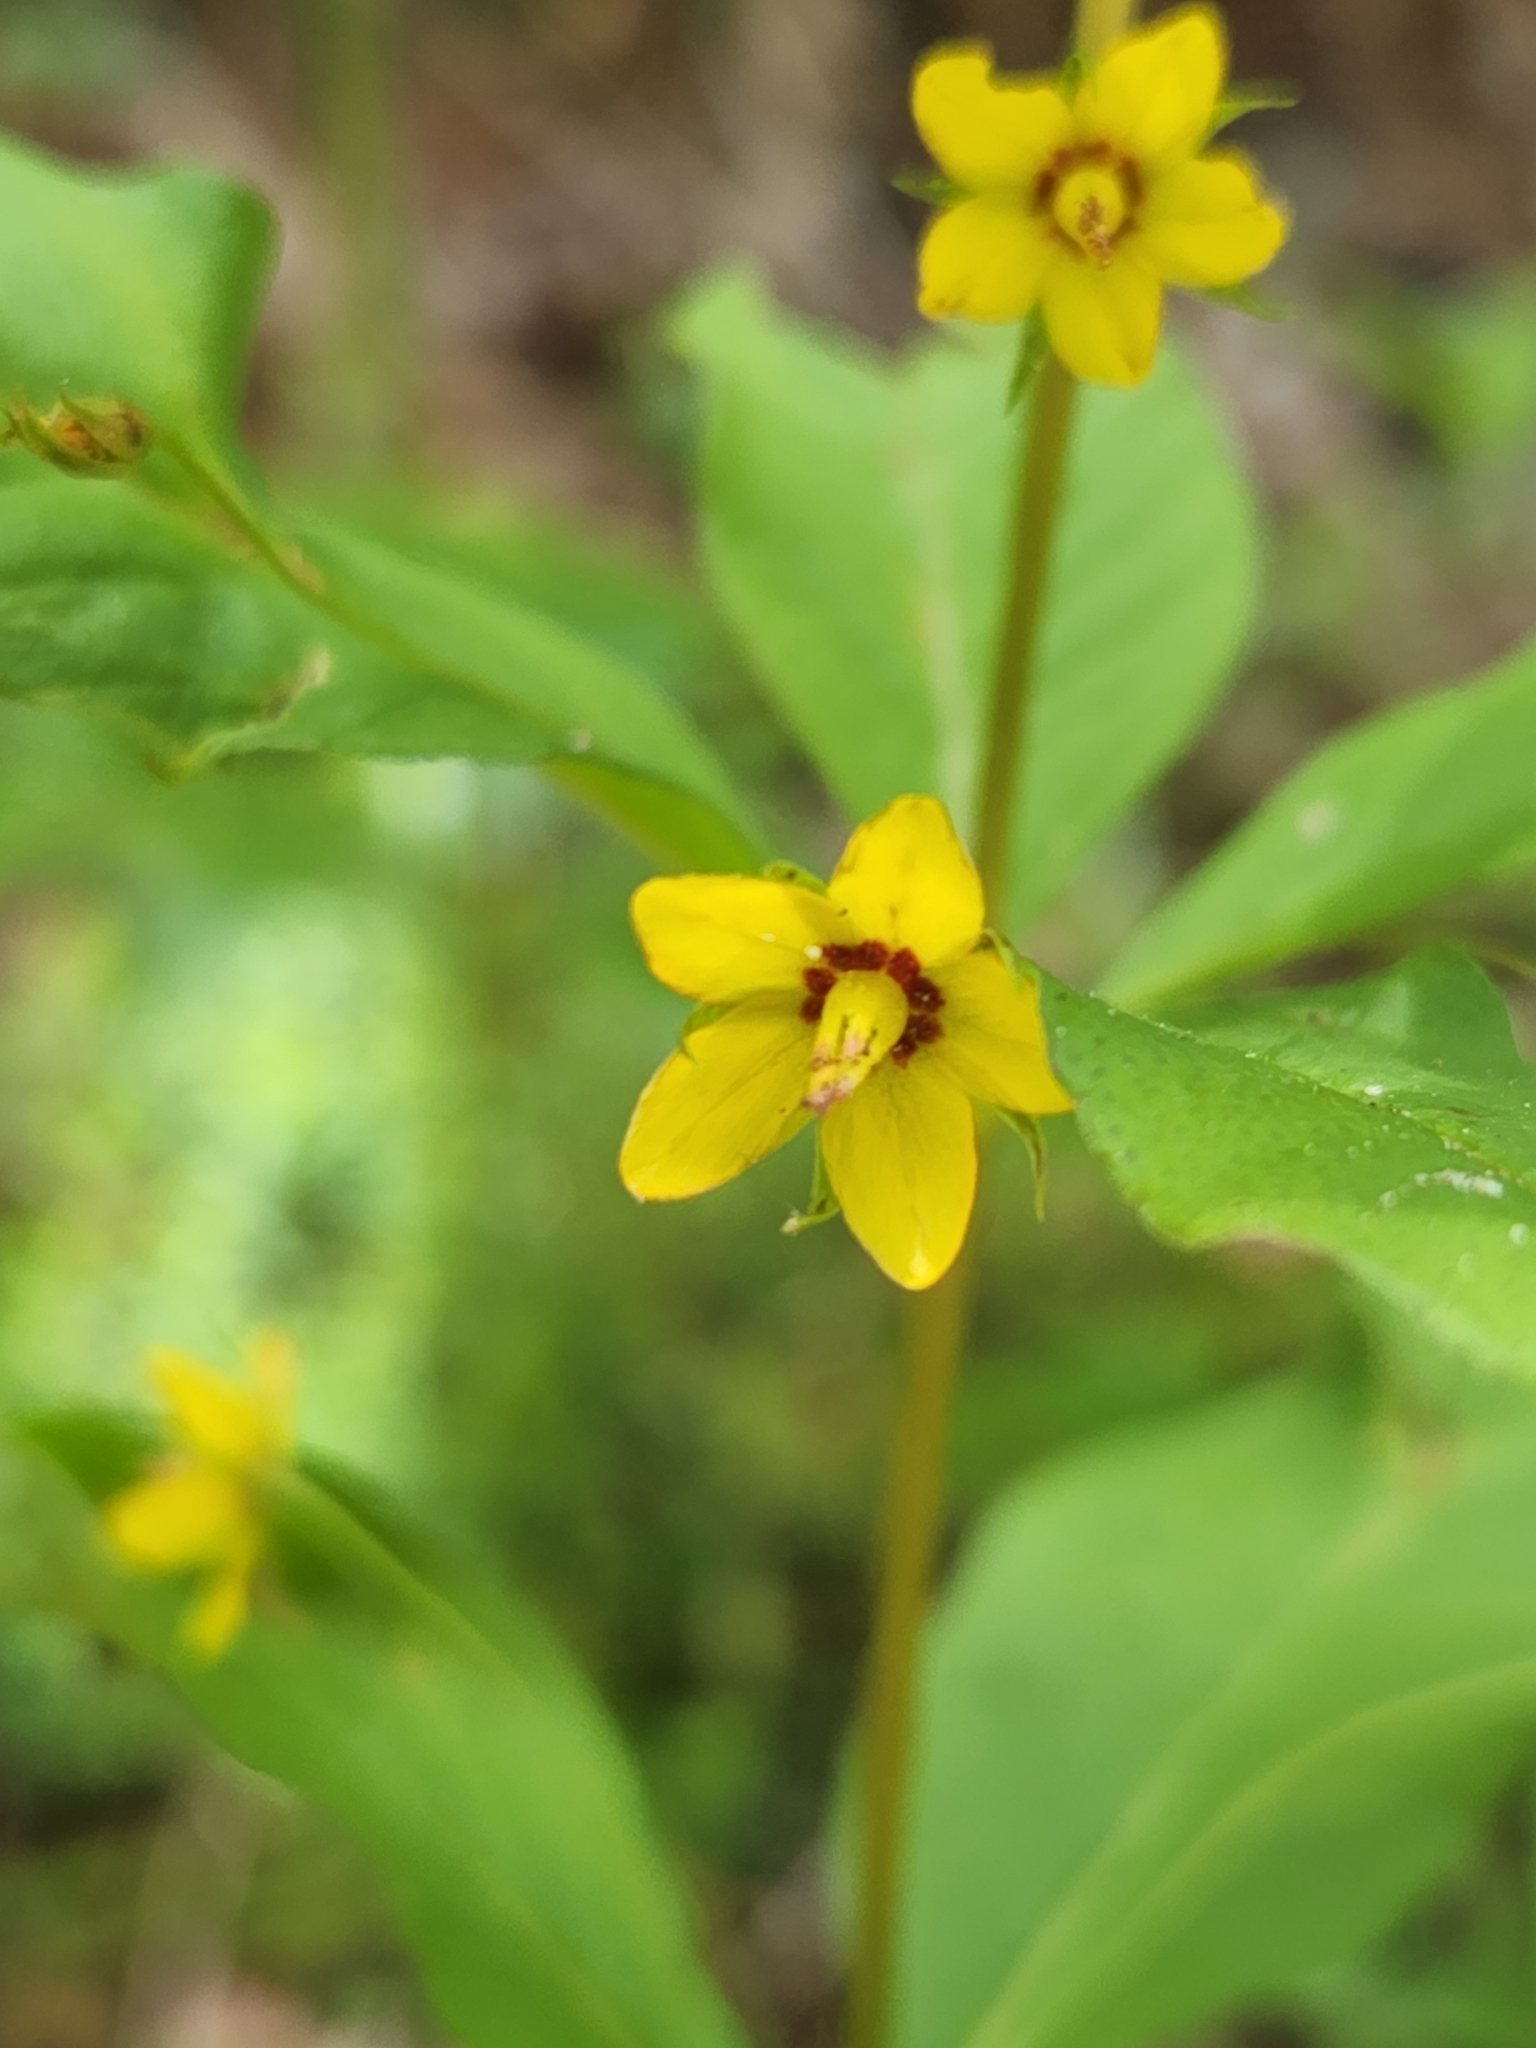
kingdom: Plantae
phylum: Tracheophyta
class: Magnoliopsida
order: Ericales
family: Primulaceae
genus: Lysimachia
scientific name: Lysimachia quadrifolia
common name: Whorled loosestrife
